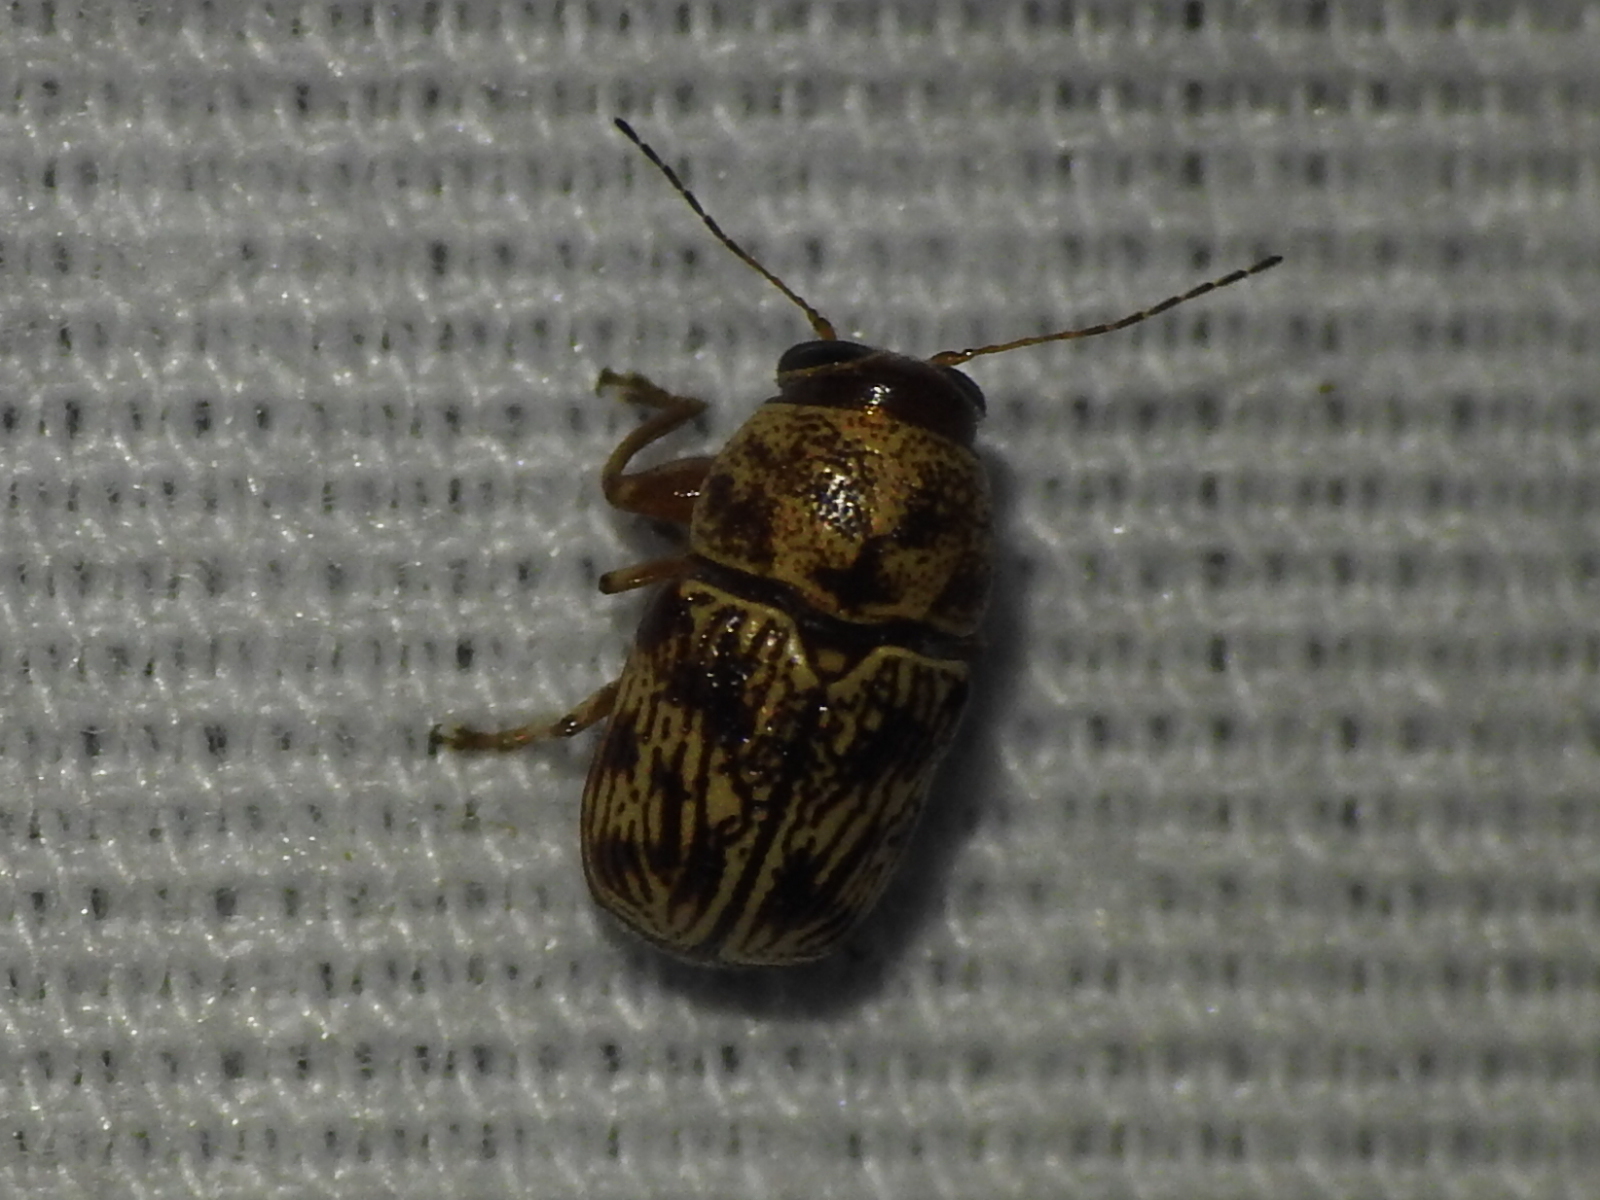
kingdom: Animalia
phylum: Arthropoda
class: Insecta
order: Coleoptera
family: Chrysomelidae
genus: Pachybrachis
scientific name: Pachybrachis
